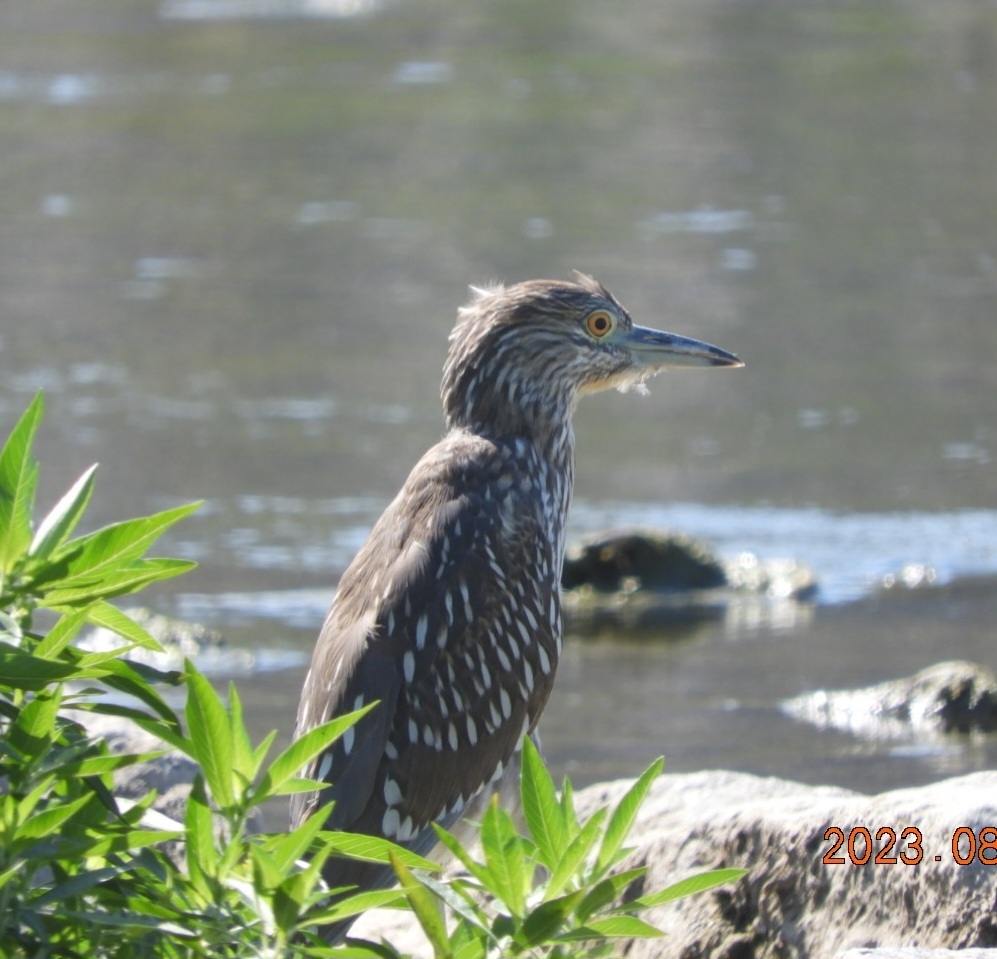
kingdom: Animalia
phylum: Chordata
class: Aves
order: Pelecaniformes
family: Ardeidae
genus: Nycticorax
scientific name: Nycticorax nycticorax
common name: Black-crowned night heron
